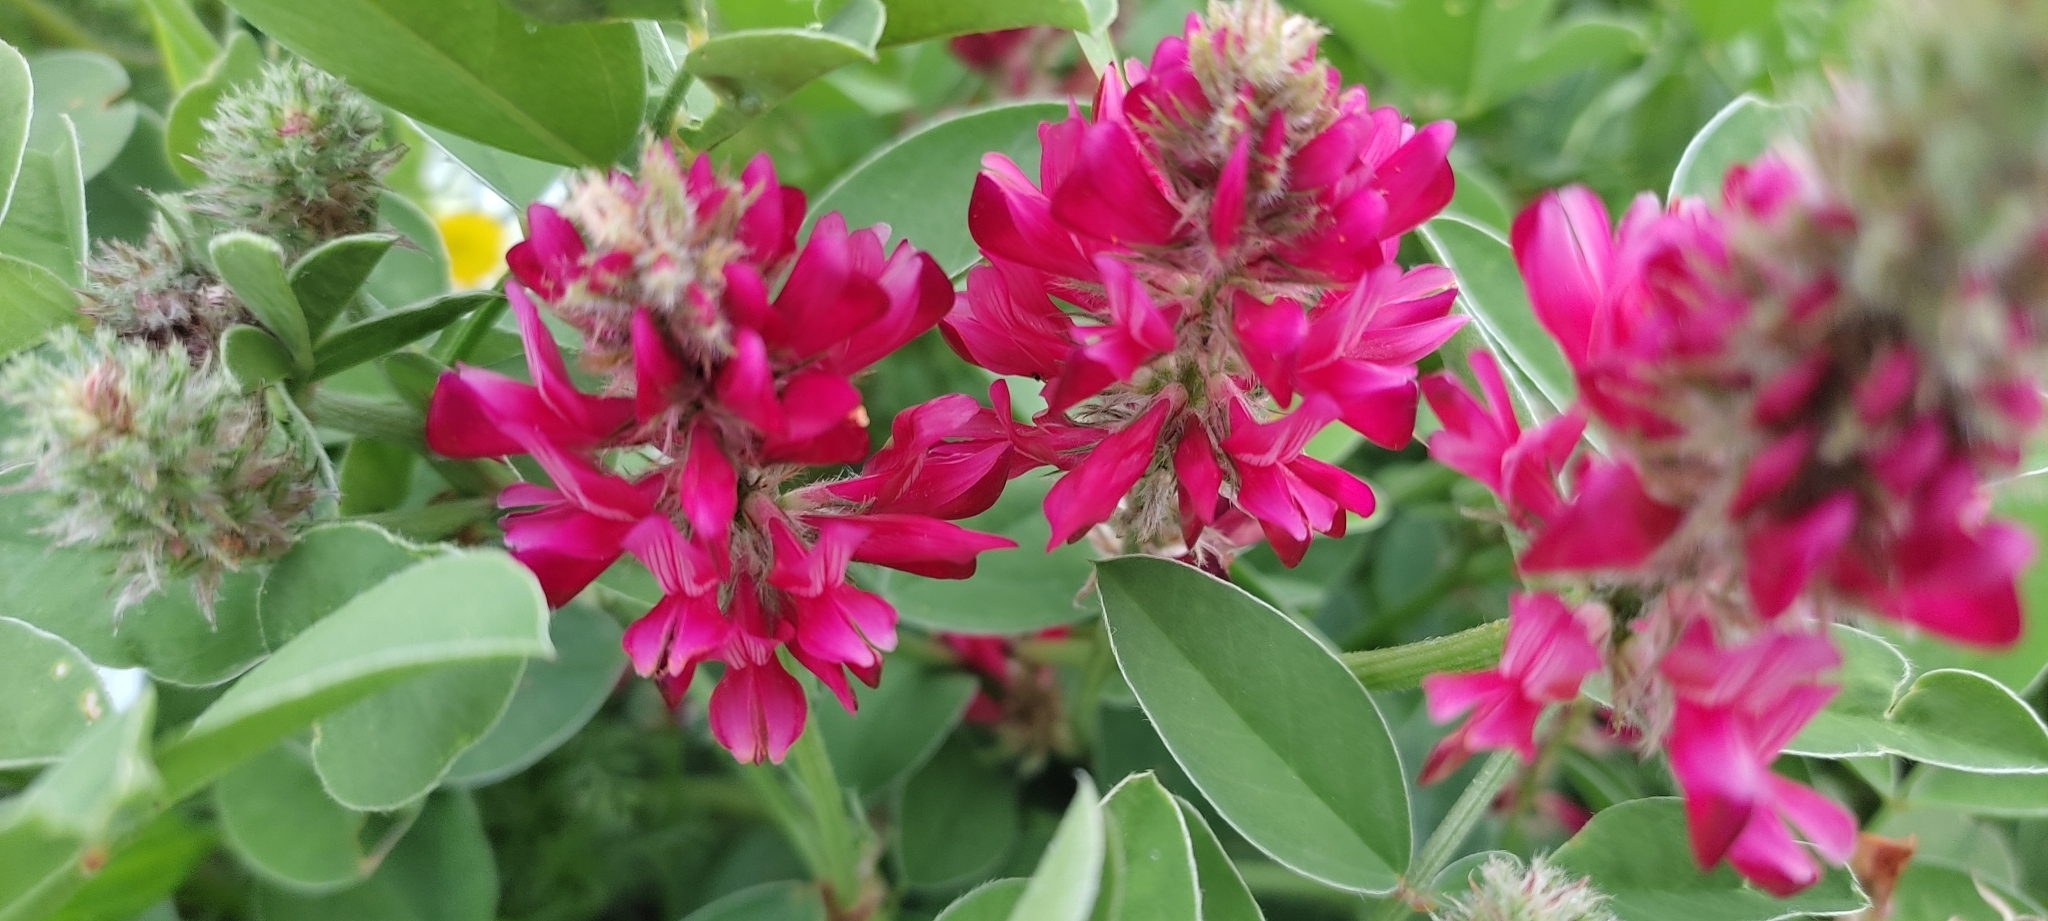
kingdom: Plantae
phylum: Tracheophyta
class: Magnoliopsida
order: Fabales
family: Fabaceae
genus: Sulla
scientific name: Sulla coronaria
